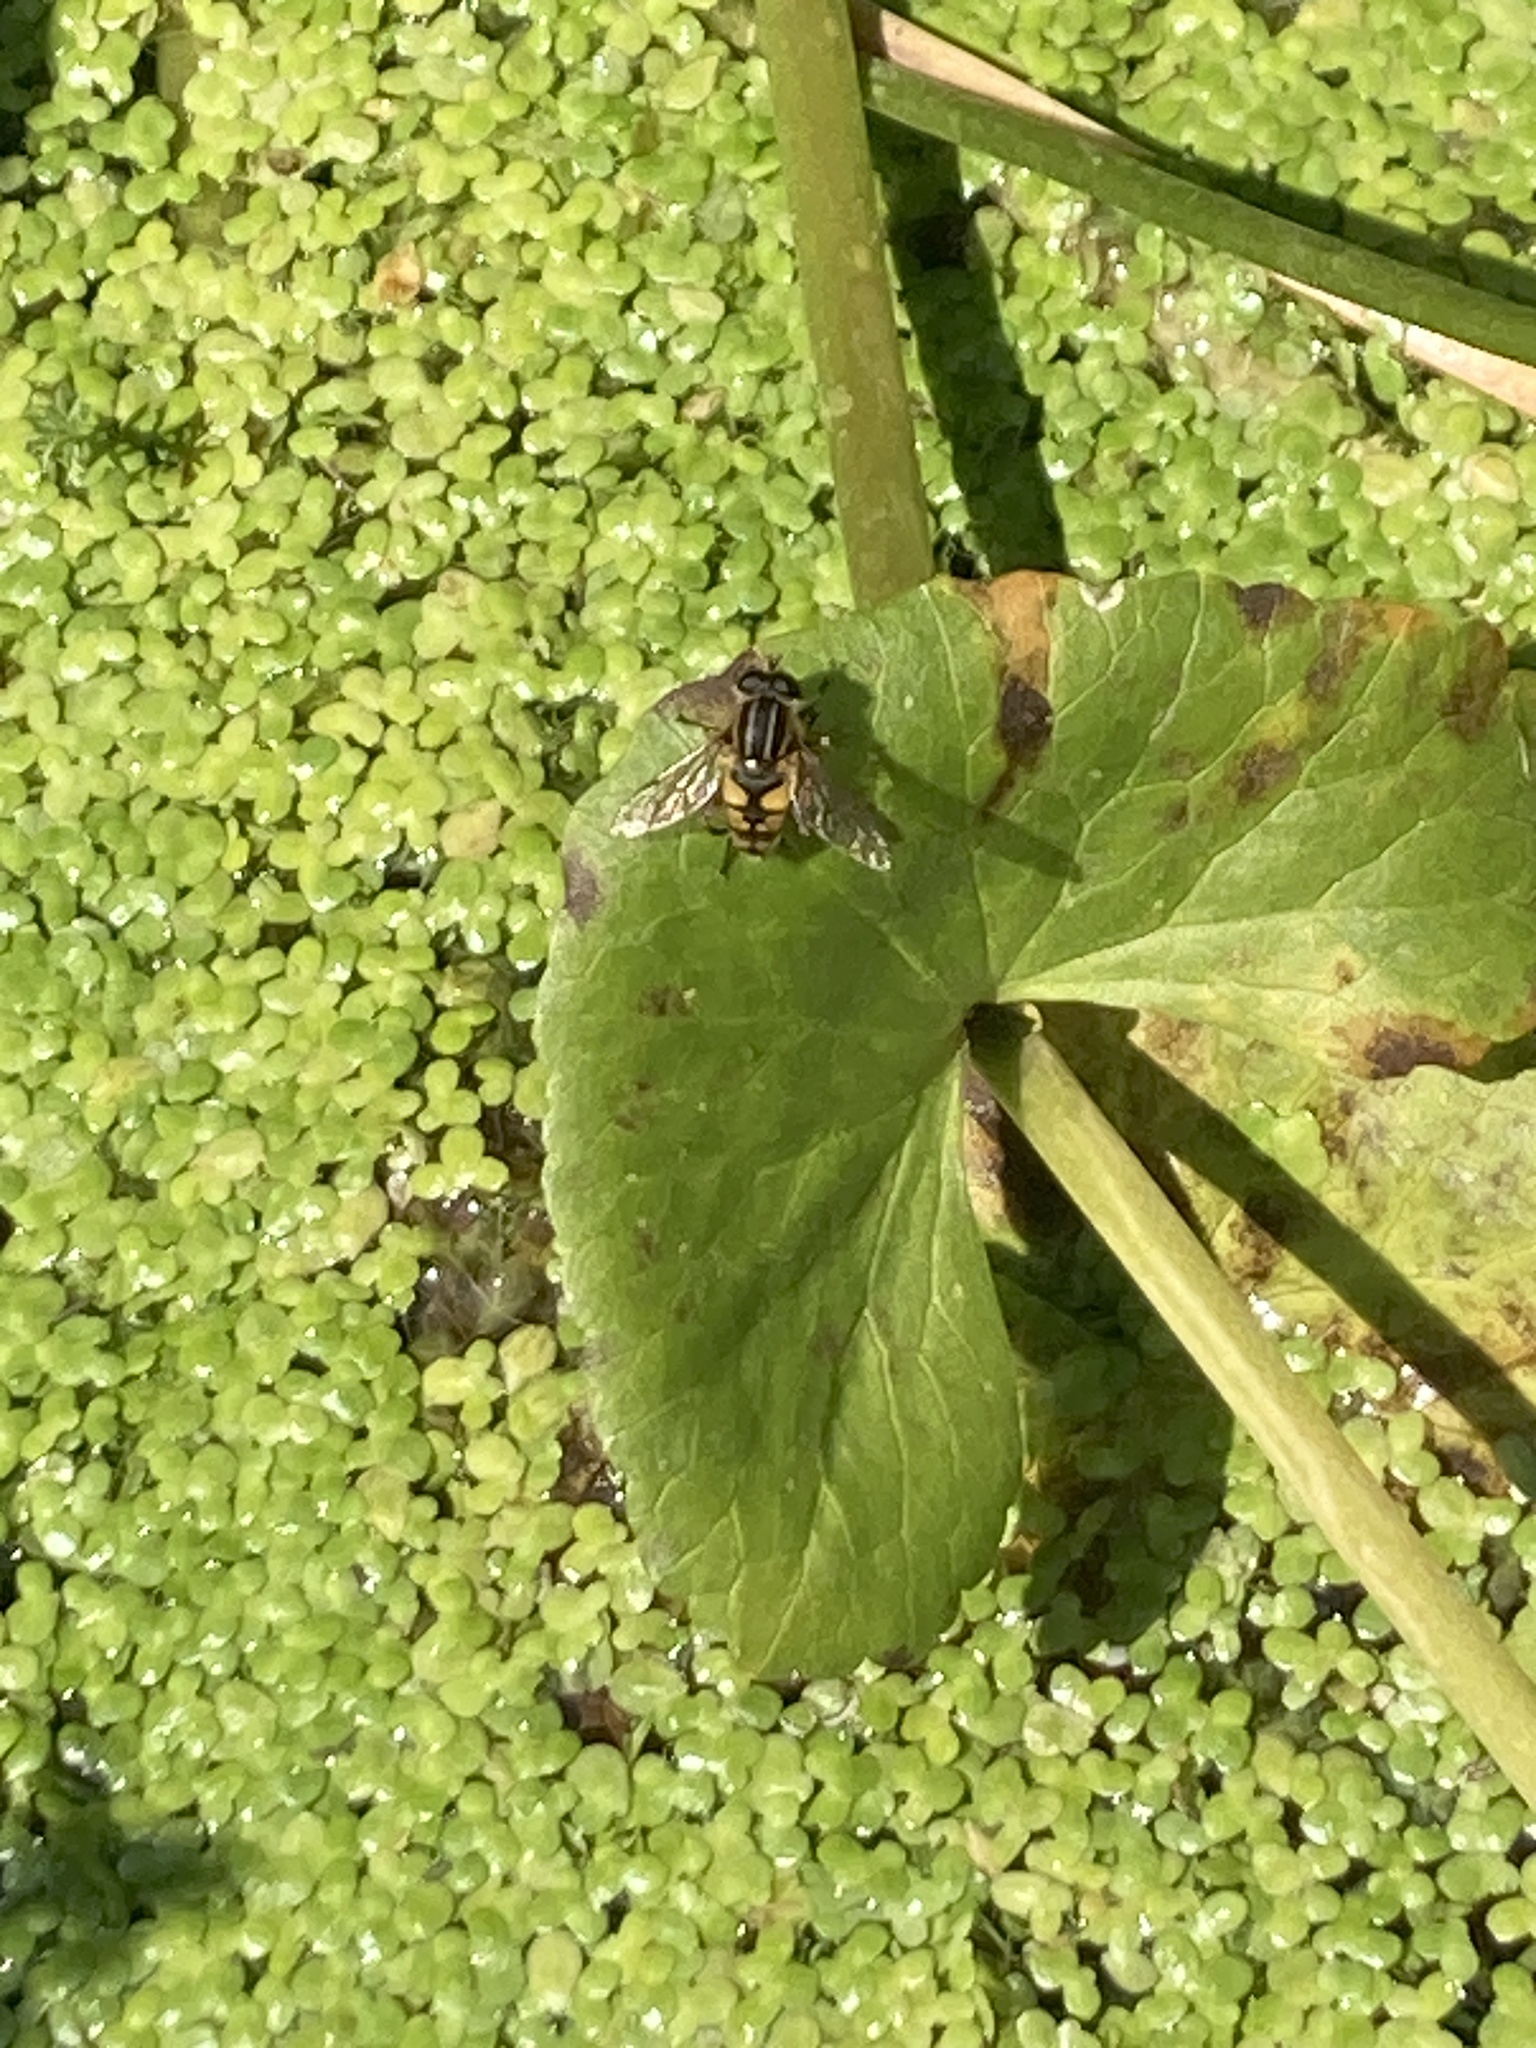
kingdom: Animalia
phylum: Arthropoda
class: Insecta
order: Diptera
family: Syrphidae
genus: Helophilus
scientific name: Helophilus pendulus
